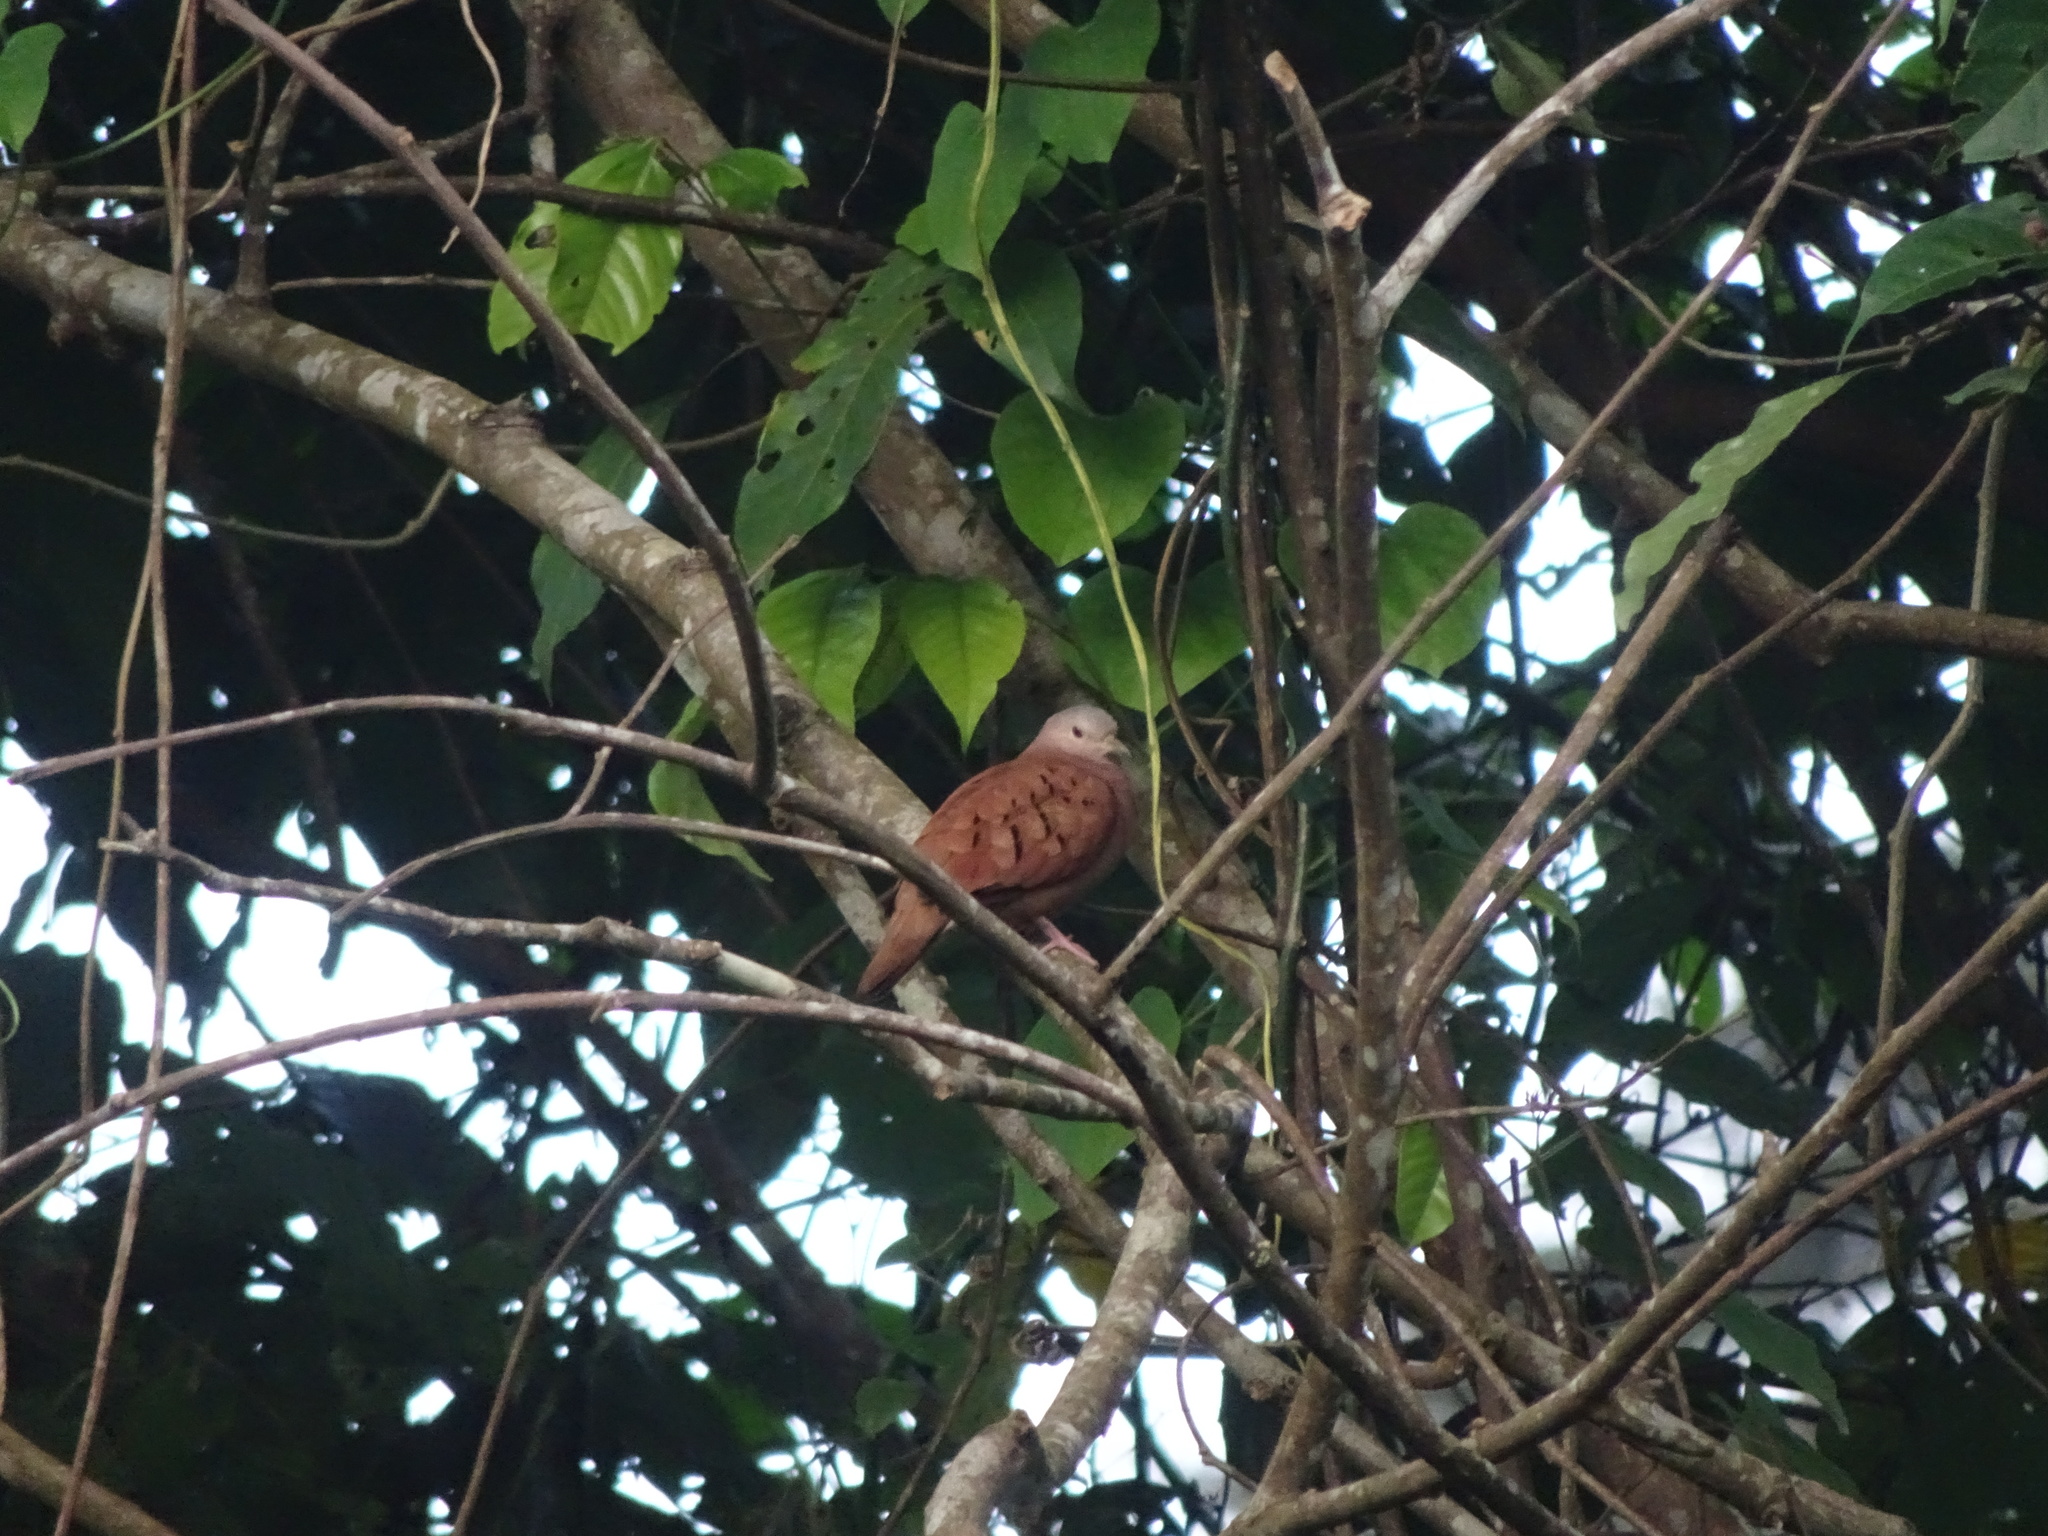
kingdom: Animalia
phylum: Chordata
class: Aves
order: Columbiformes
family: Columbidae
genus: Columbina
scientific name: Columbina talpacoti
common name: Ruddy ground dove
